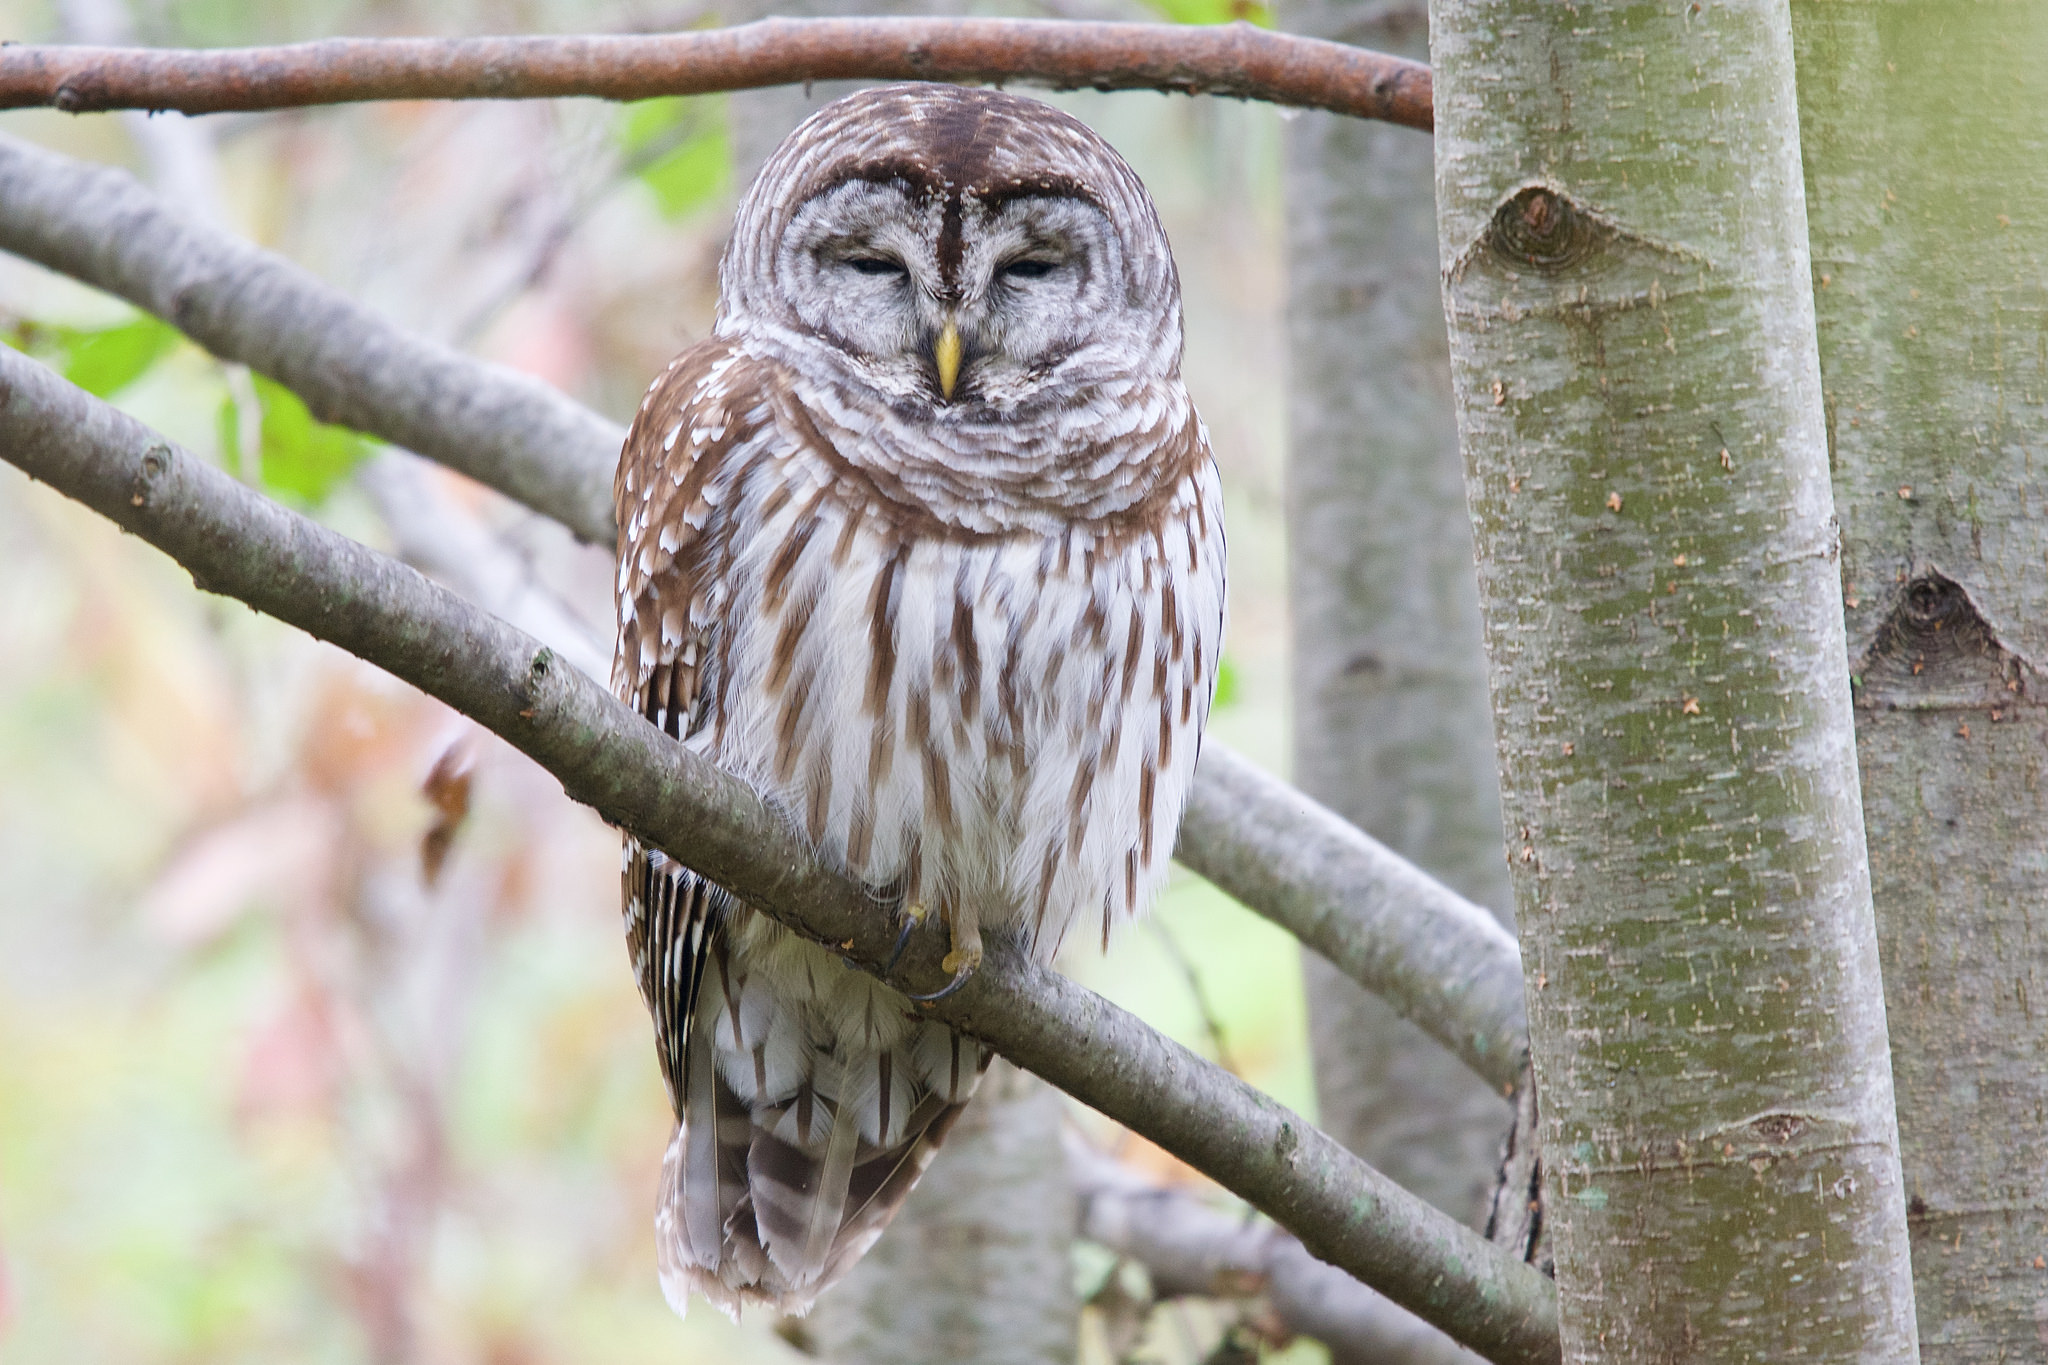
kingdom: Animalia
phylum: Chordata
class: Aves
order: Strigiformes
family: Strigidae
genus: Strix
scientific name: Strix varia
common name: Barred owl
